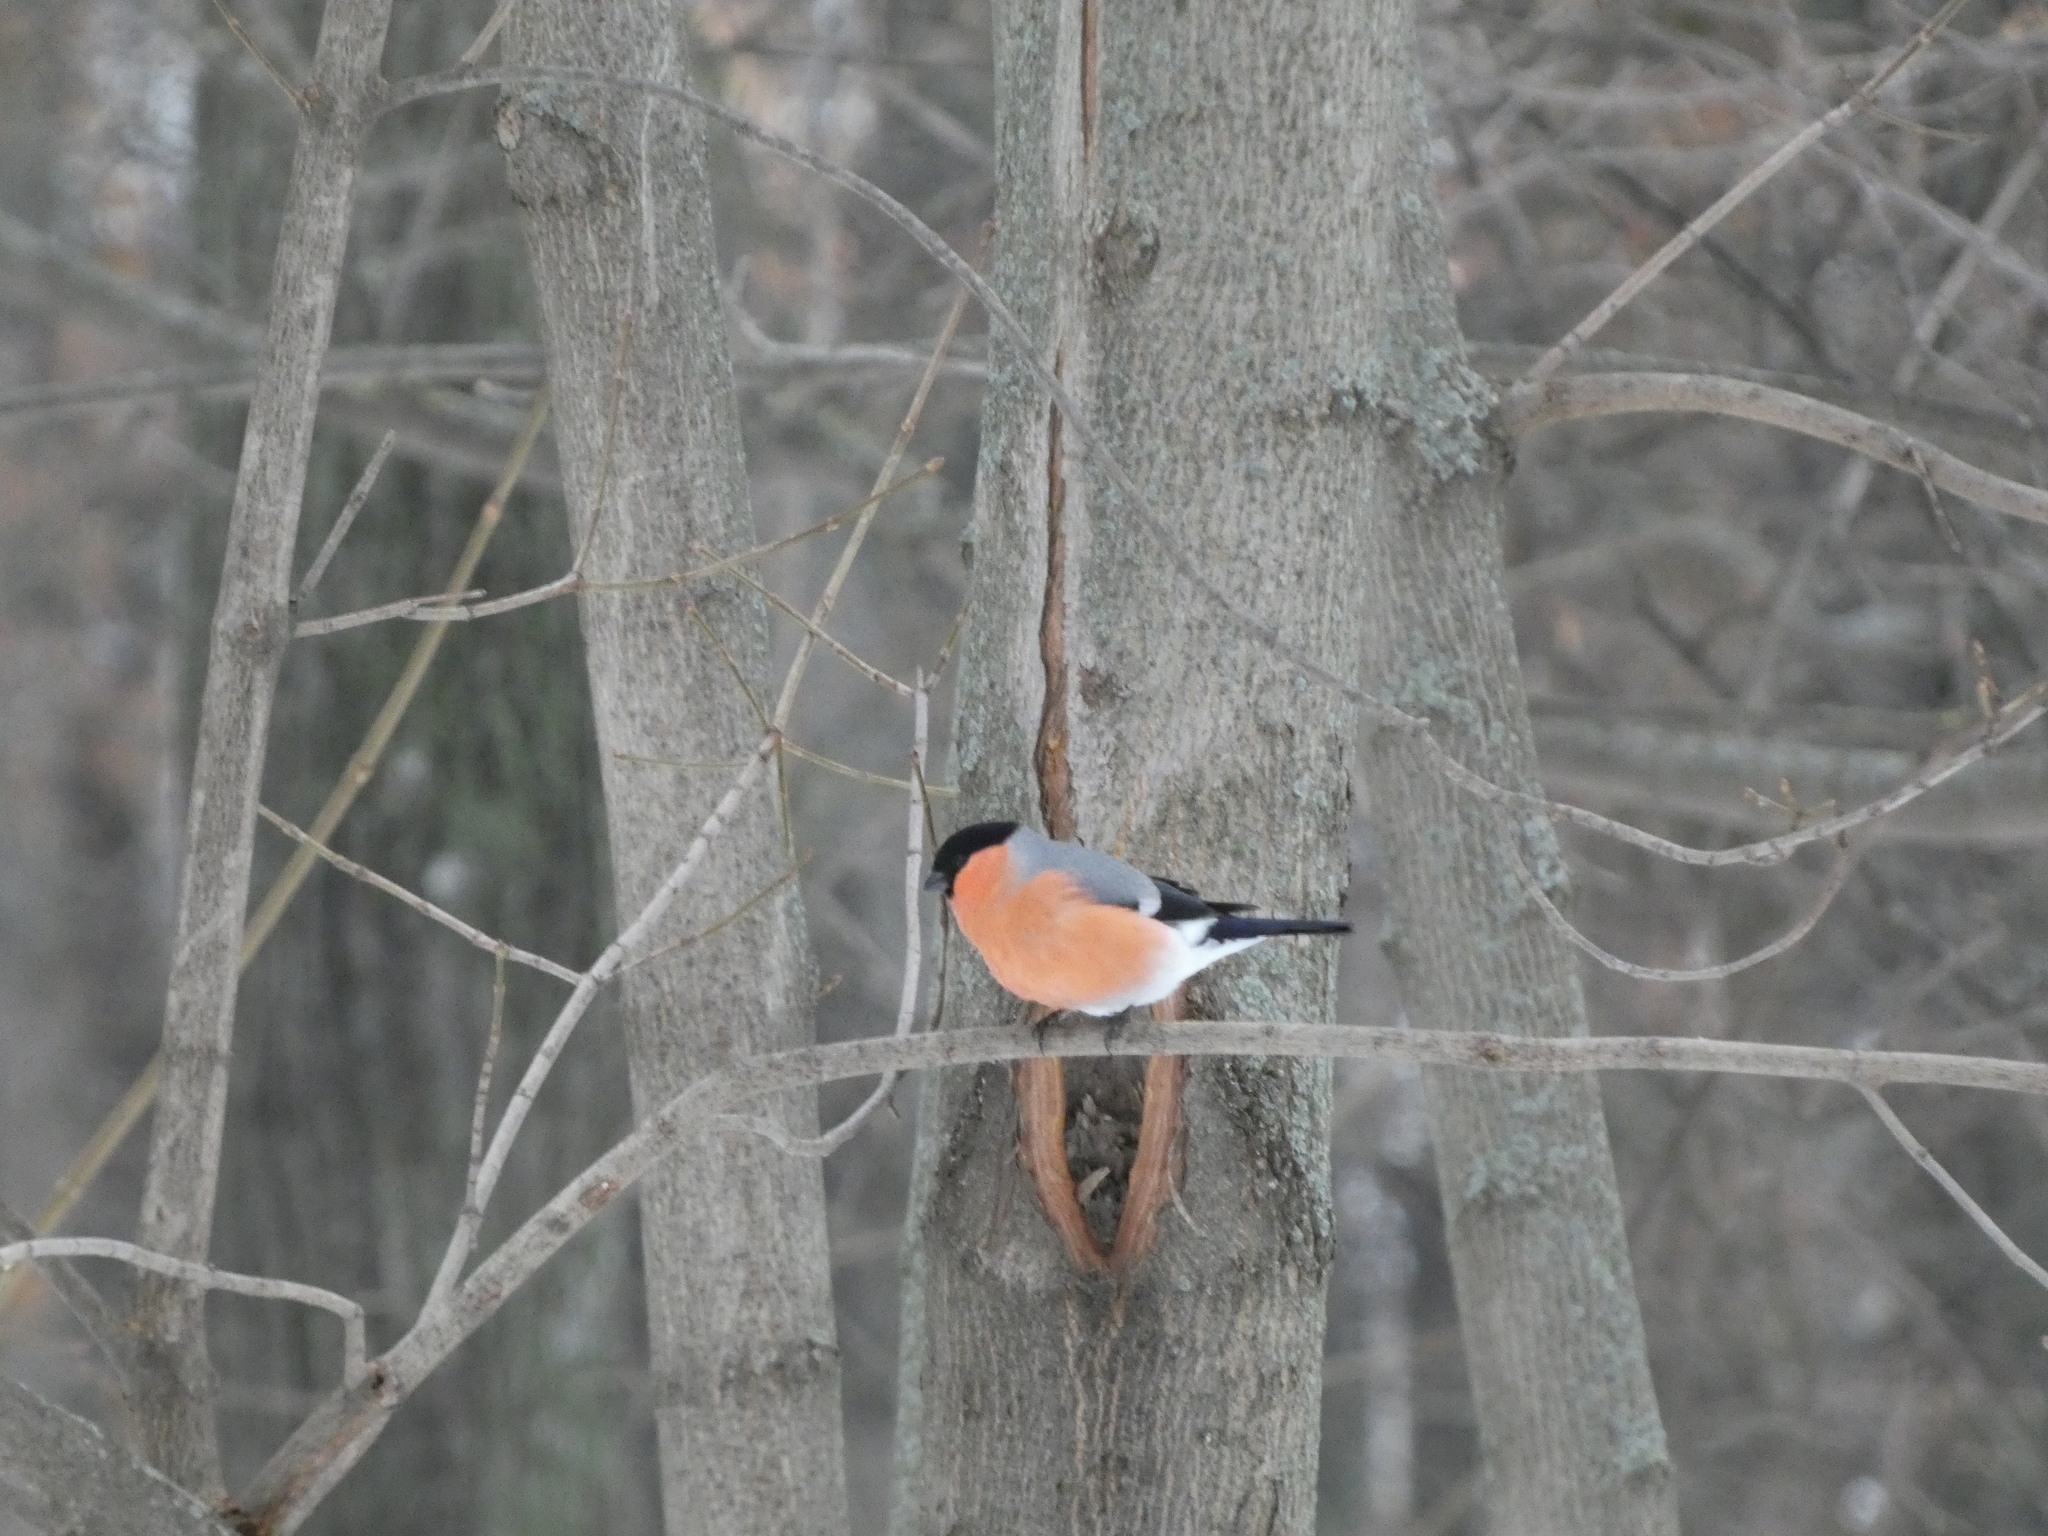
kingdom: Animalia
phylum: Chordata
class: Aves
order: Passeriformes
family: Fringillidae
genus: Pyrrhula
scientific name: Pyrrhula pyrrhula
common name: Eurasian bullfinch
